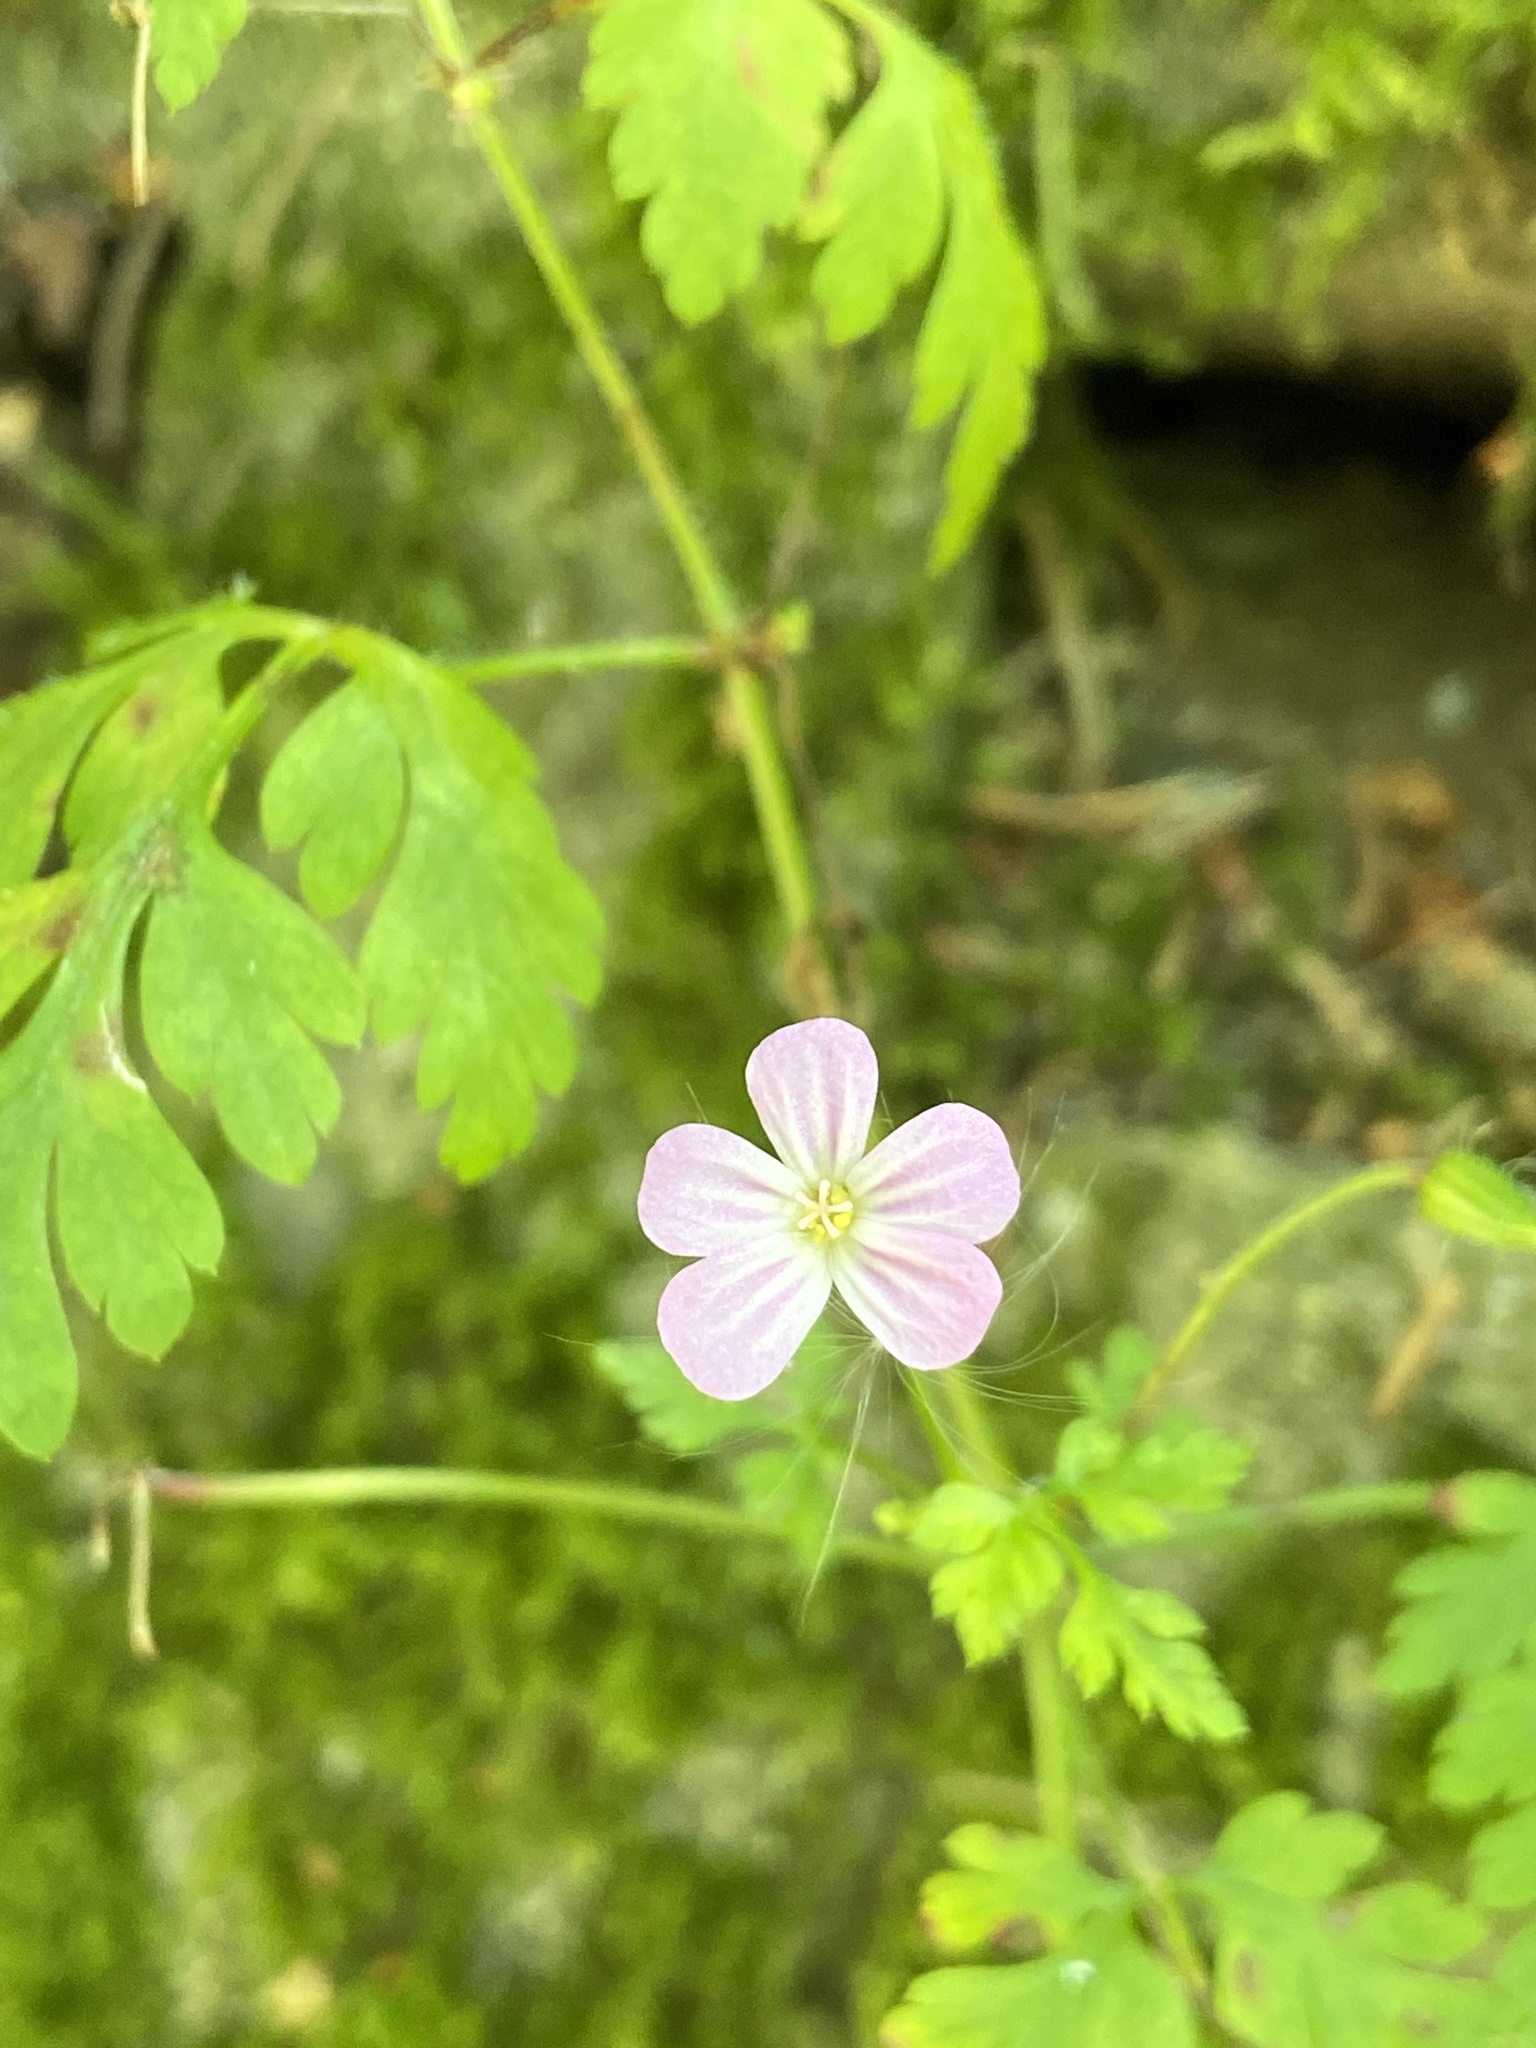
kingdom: Plantae
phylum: Tracheophyta
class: Magnoliopsida
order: Geraniales
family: Geraniaceae
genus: Geranium
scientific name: Geranium robertianum
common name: Herb-robert
